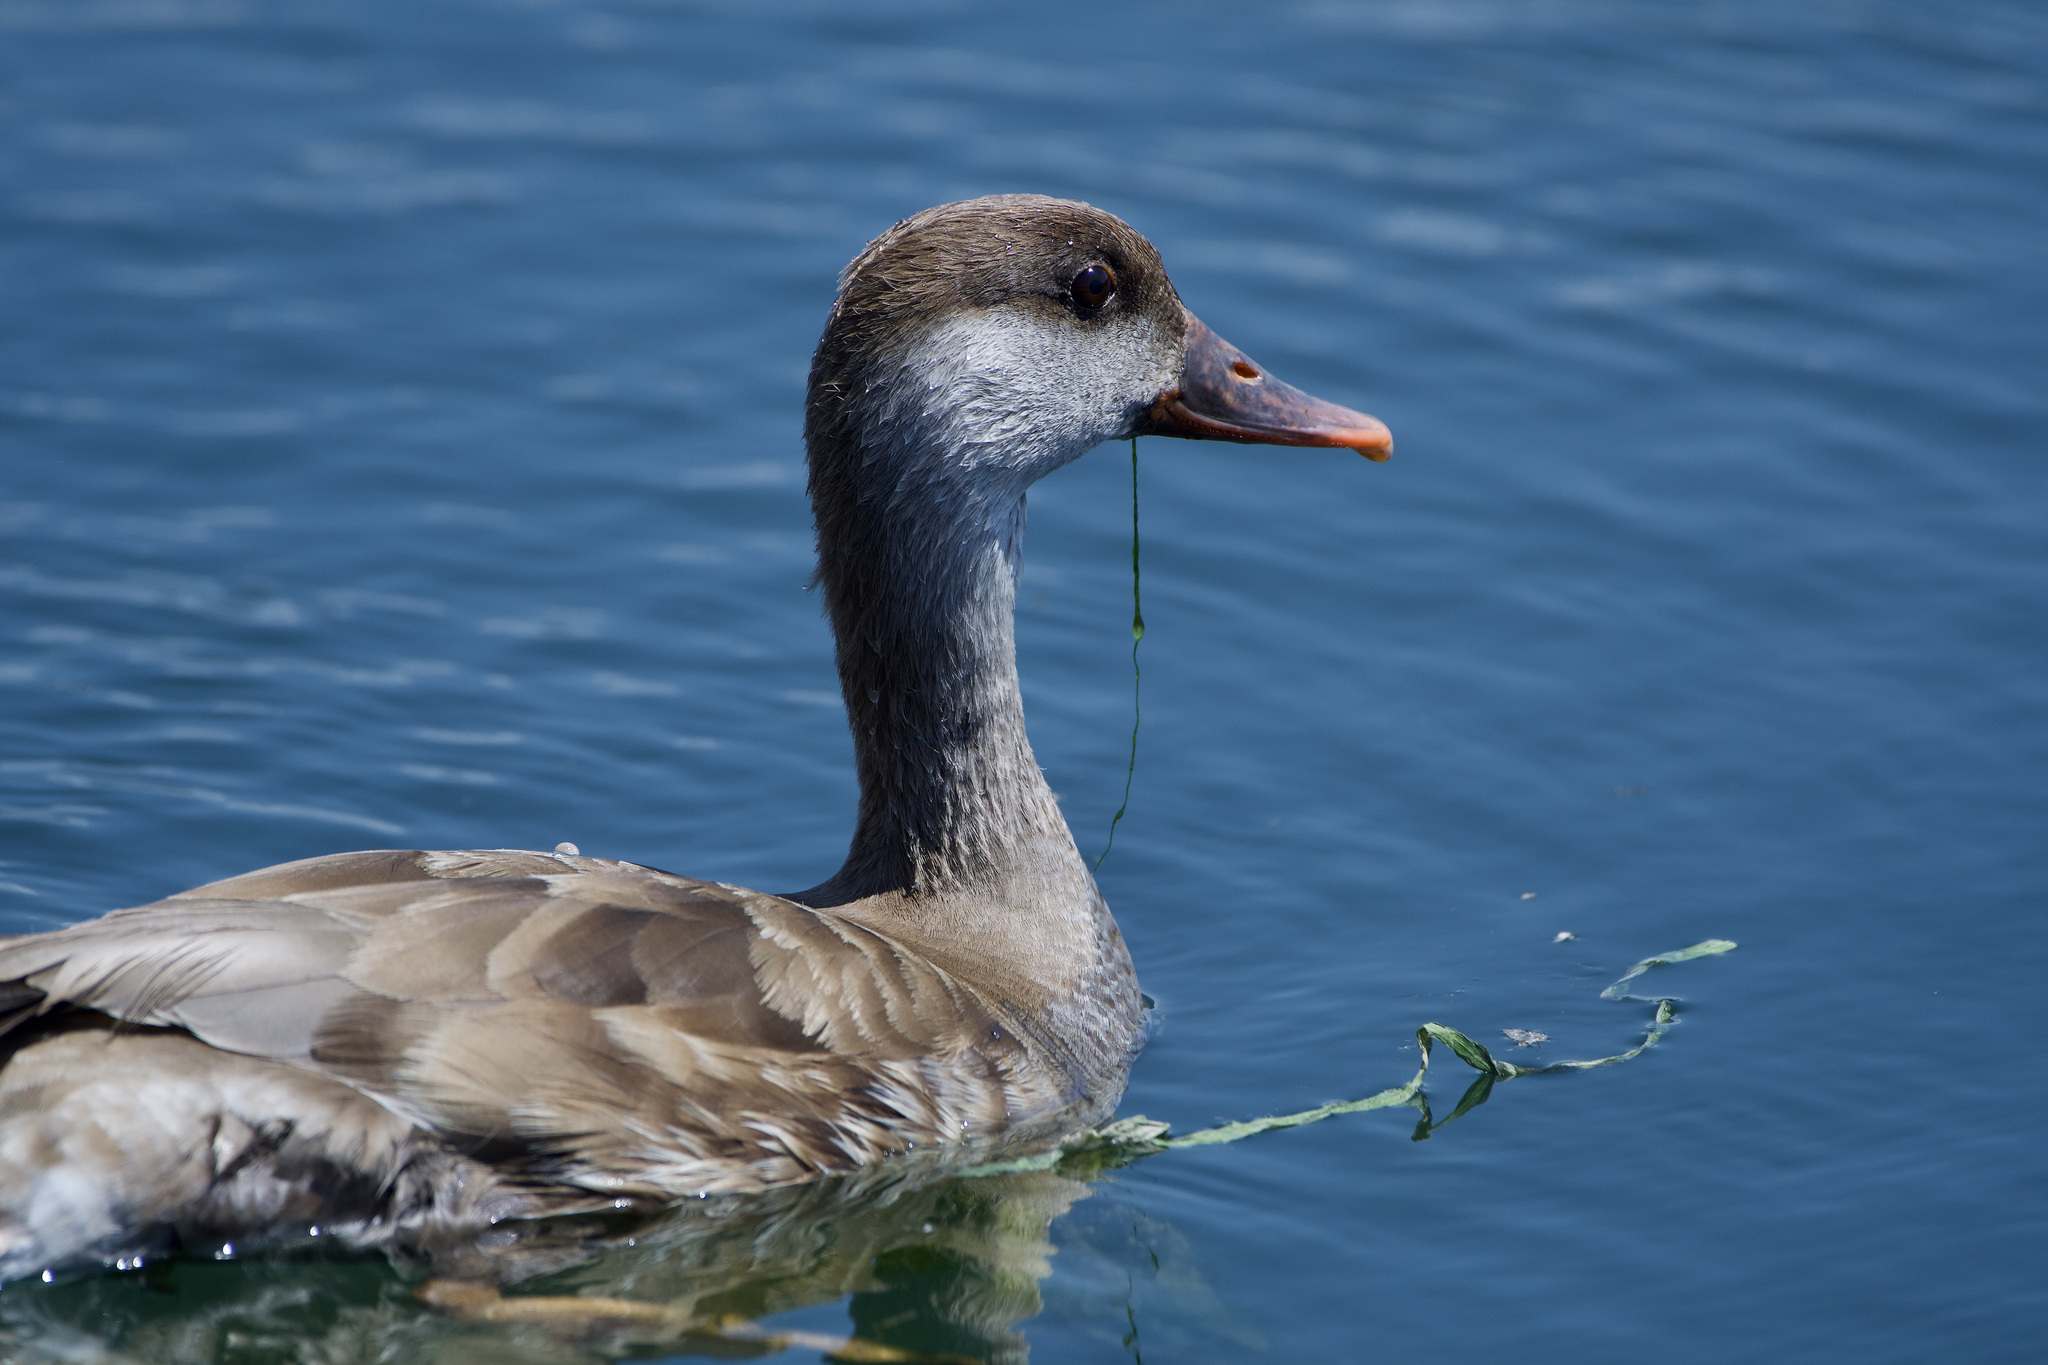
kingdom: Animalia
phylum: Chordata
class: Aves
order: Anseriformes
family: Anatidae
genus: Netta
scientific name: Netta rufina
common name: Red-crested pochard
